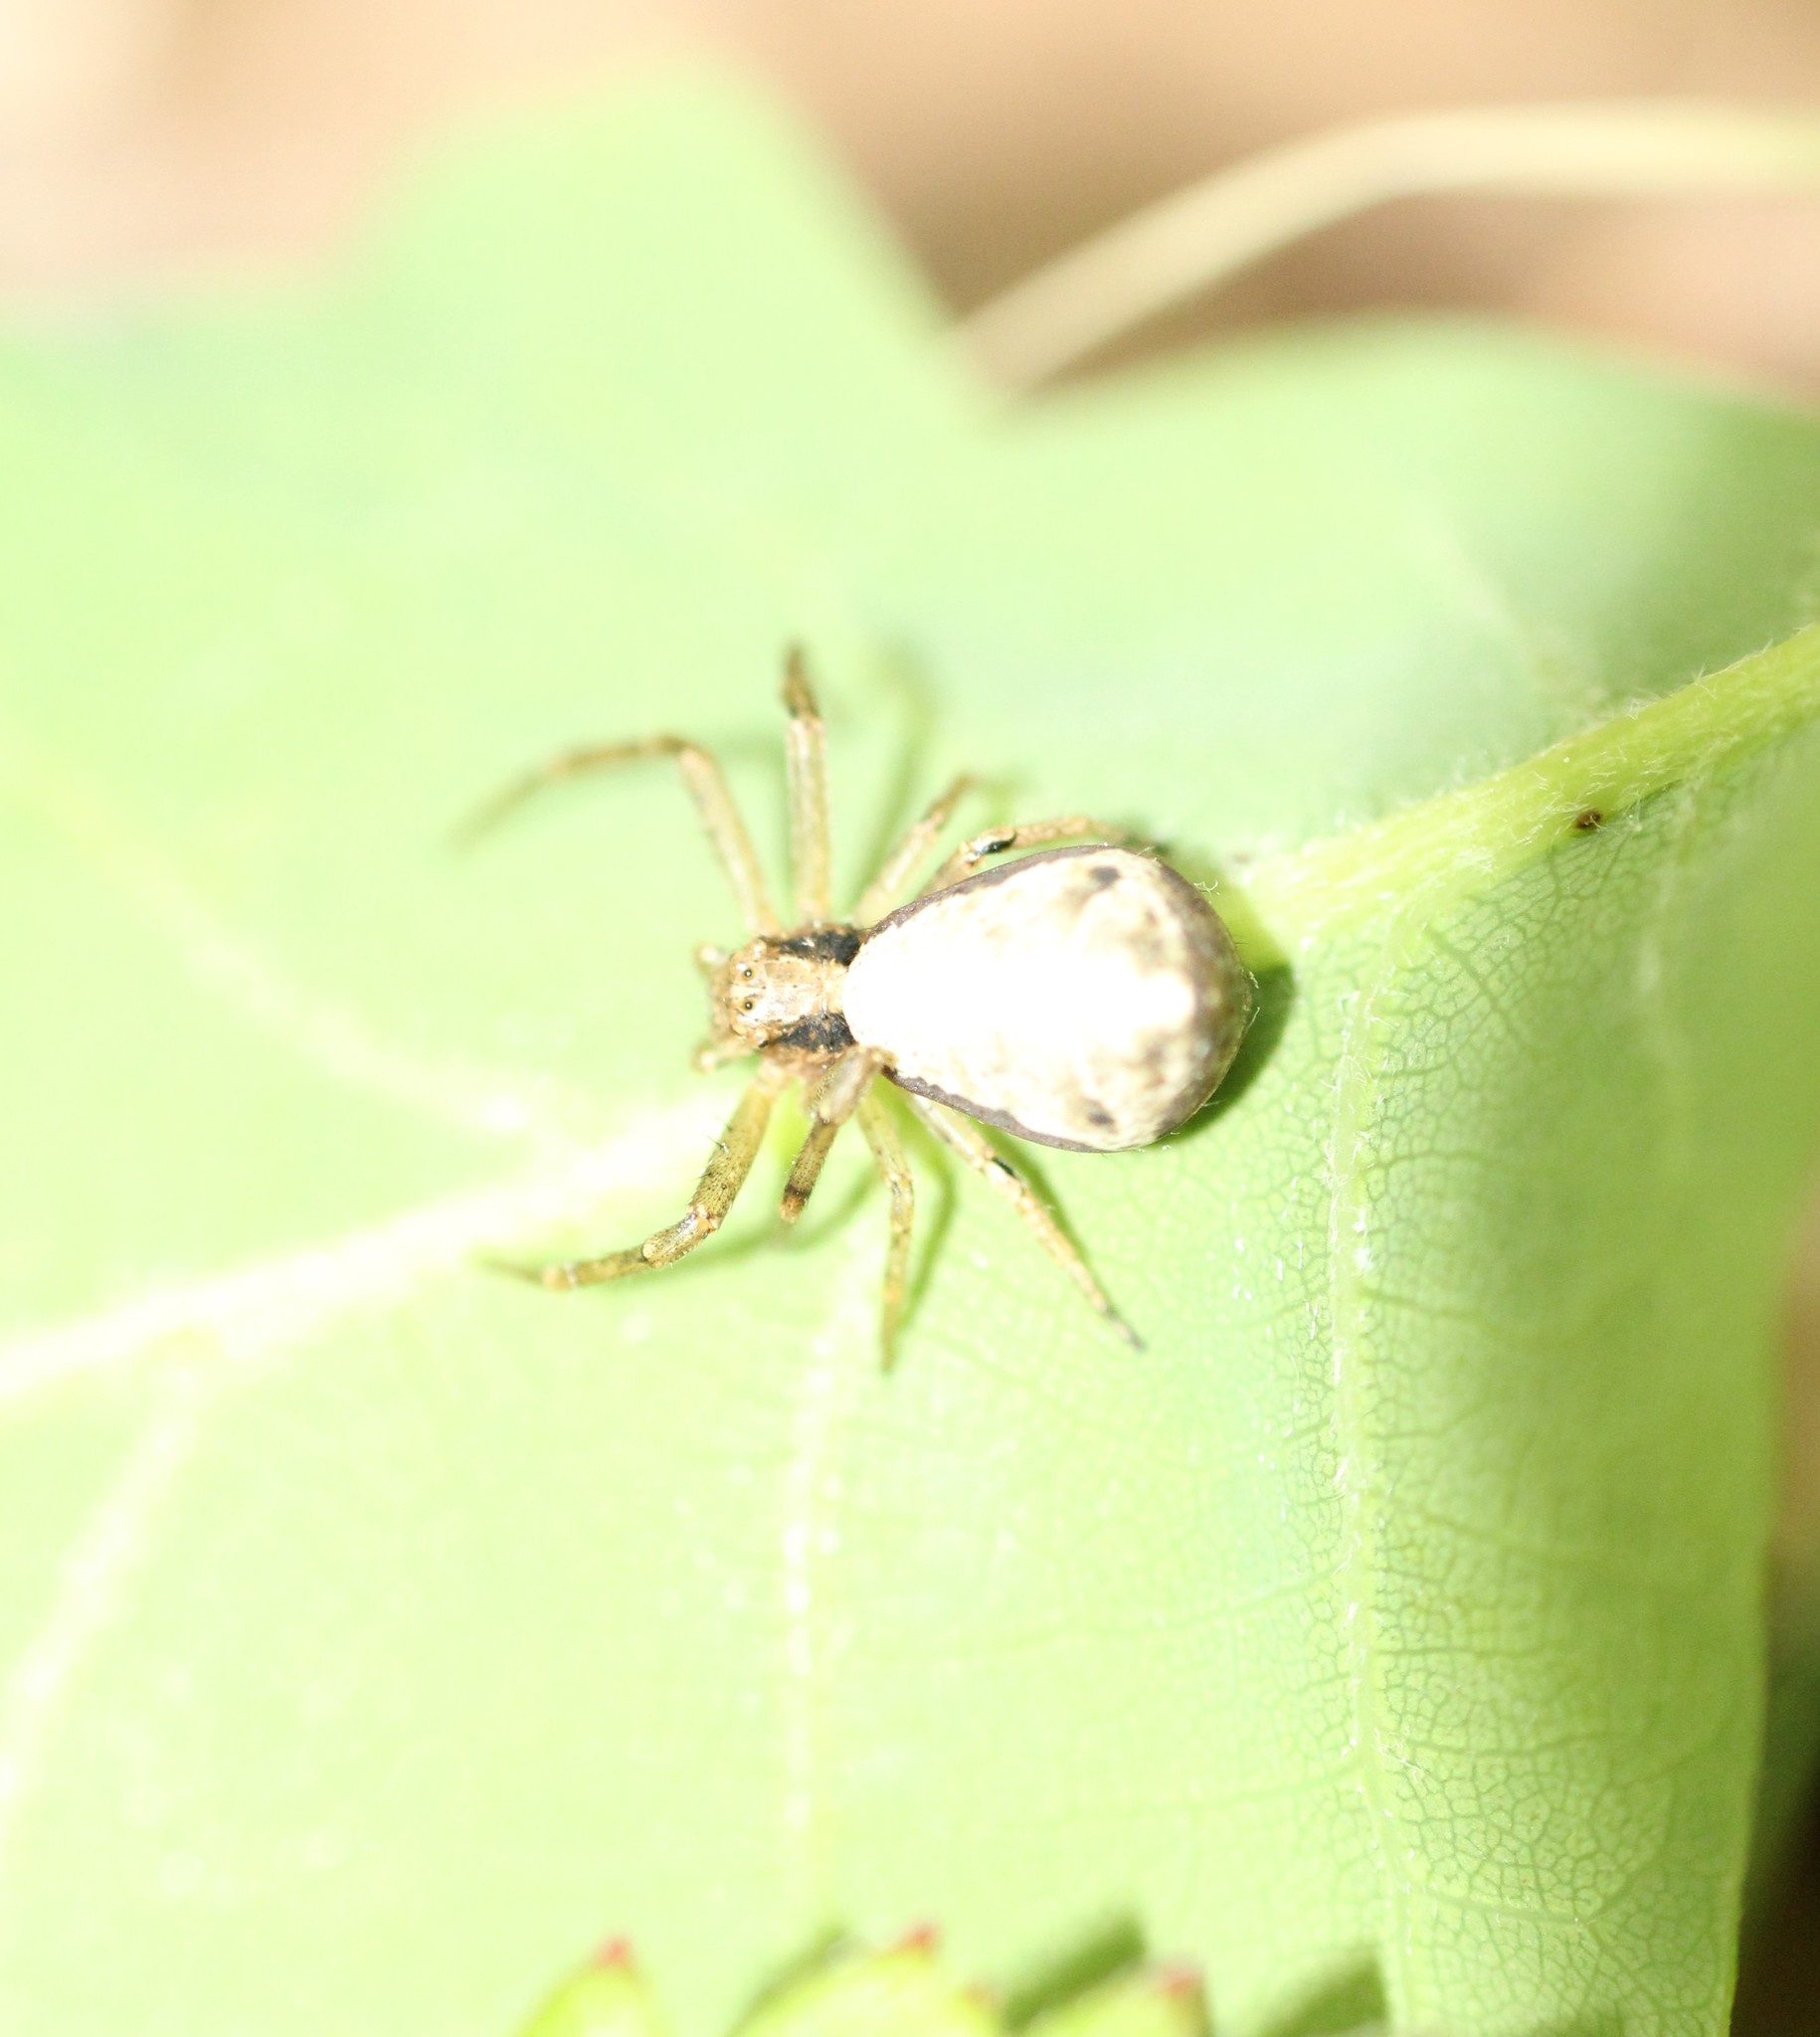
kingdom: Animalia
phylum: Arthropoda
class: Arachnida
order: Araneae
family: Thomisidae
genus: Tmarus
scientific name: Tmarus
